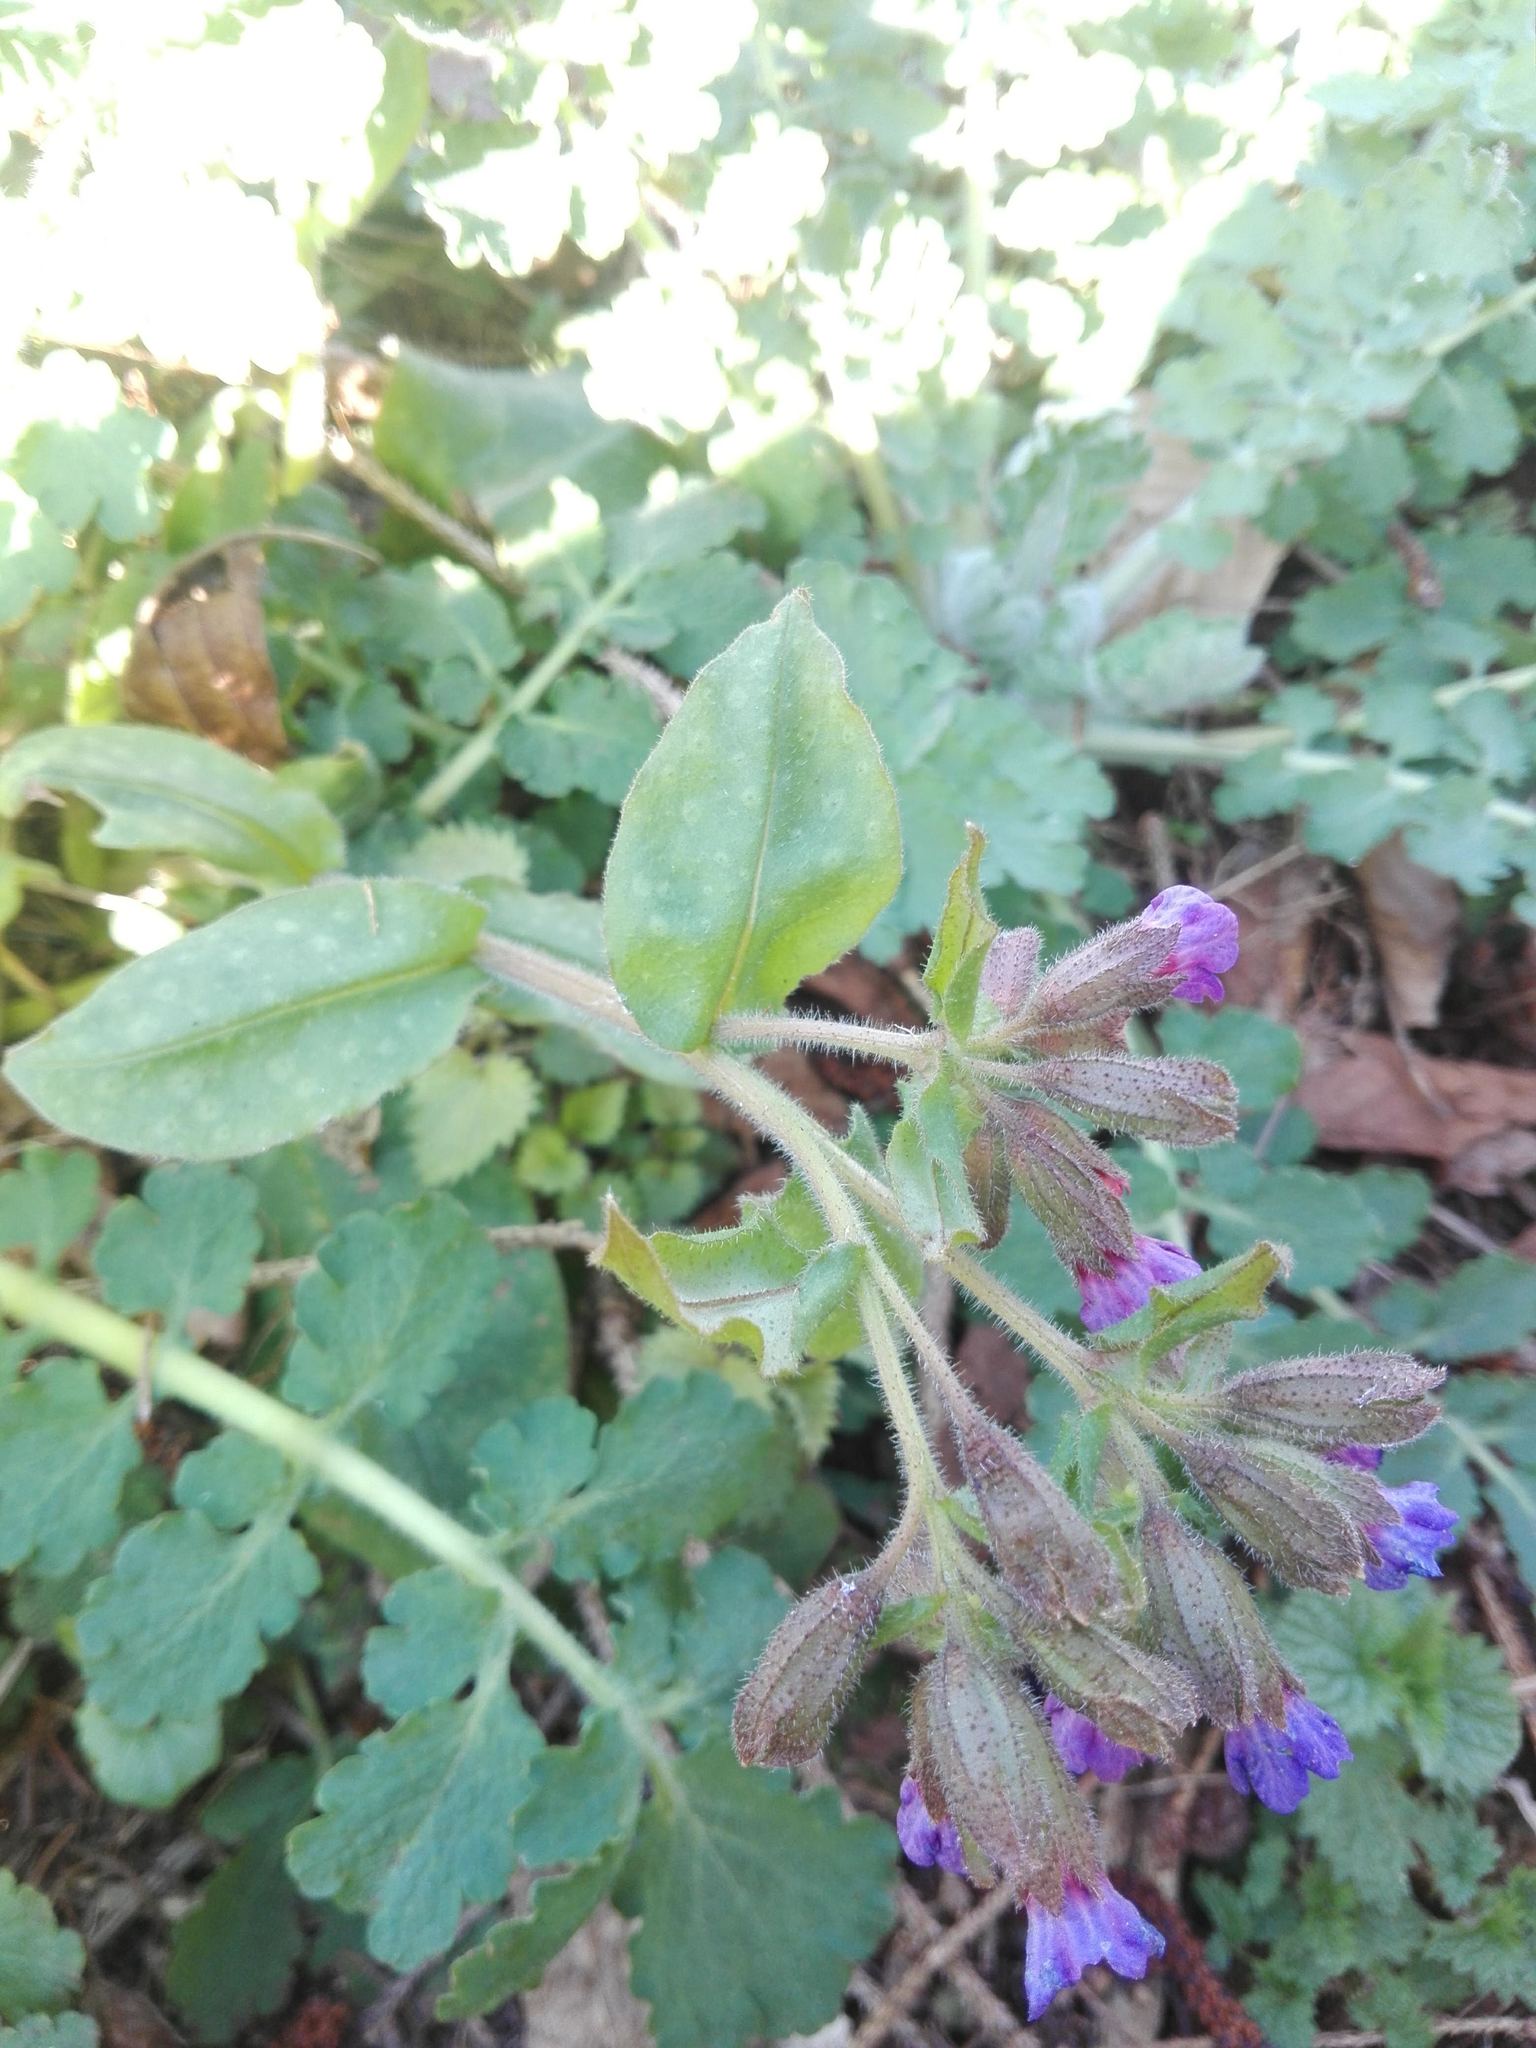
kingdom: Plantae
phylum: Tracheophyta
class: Magnoliopsida
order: Boraginales
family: Boraginaceae
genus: Pulmonaria
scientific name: Pulmonaria officinalis
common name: Lungwort
